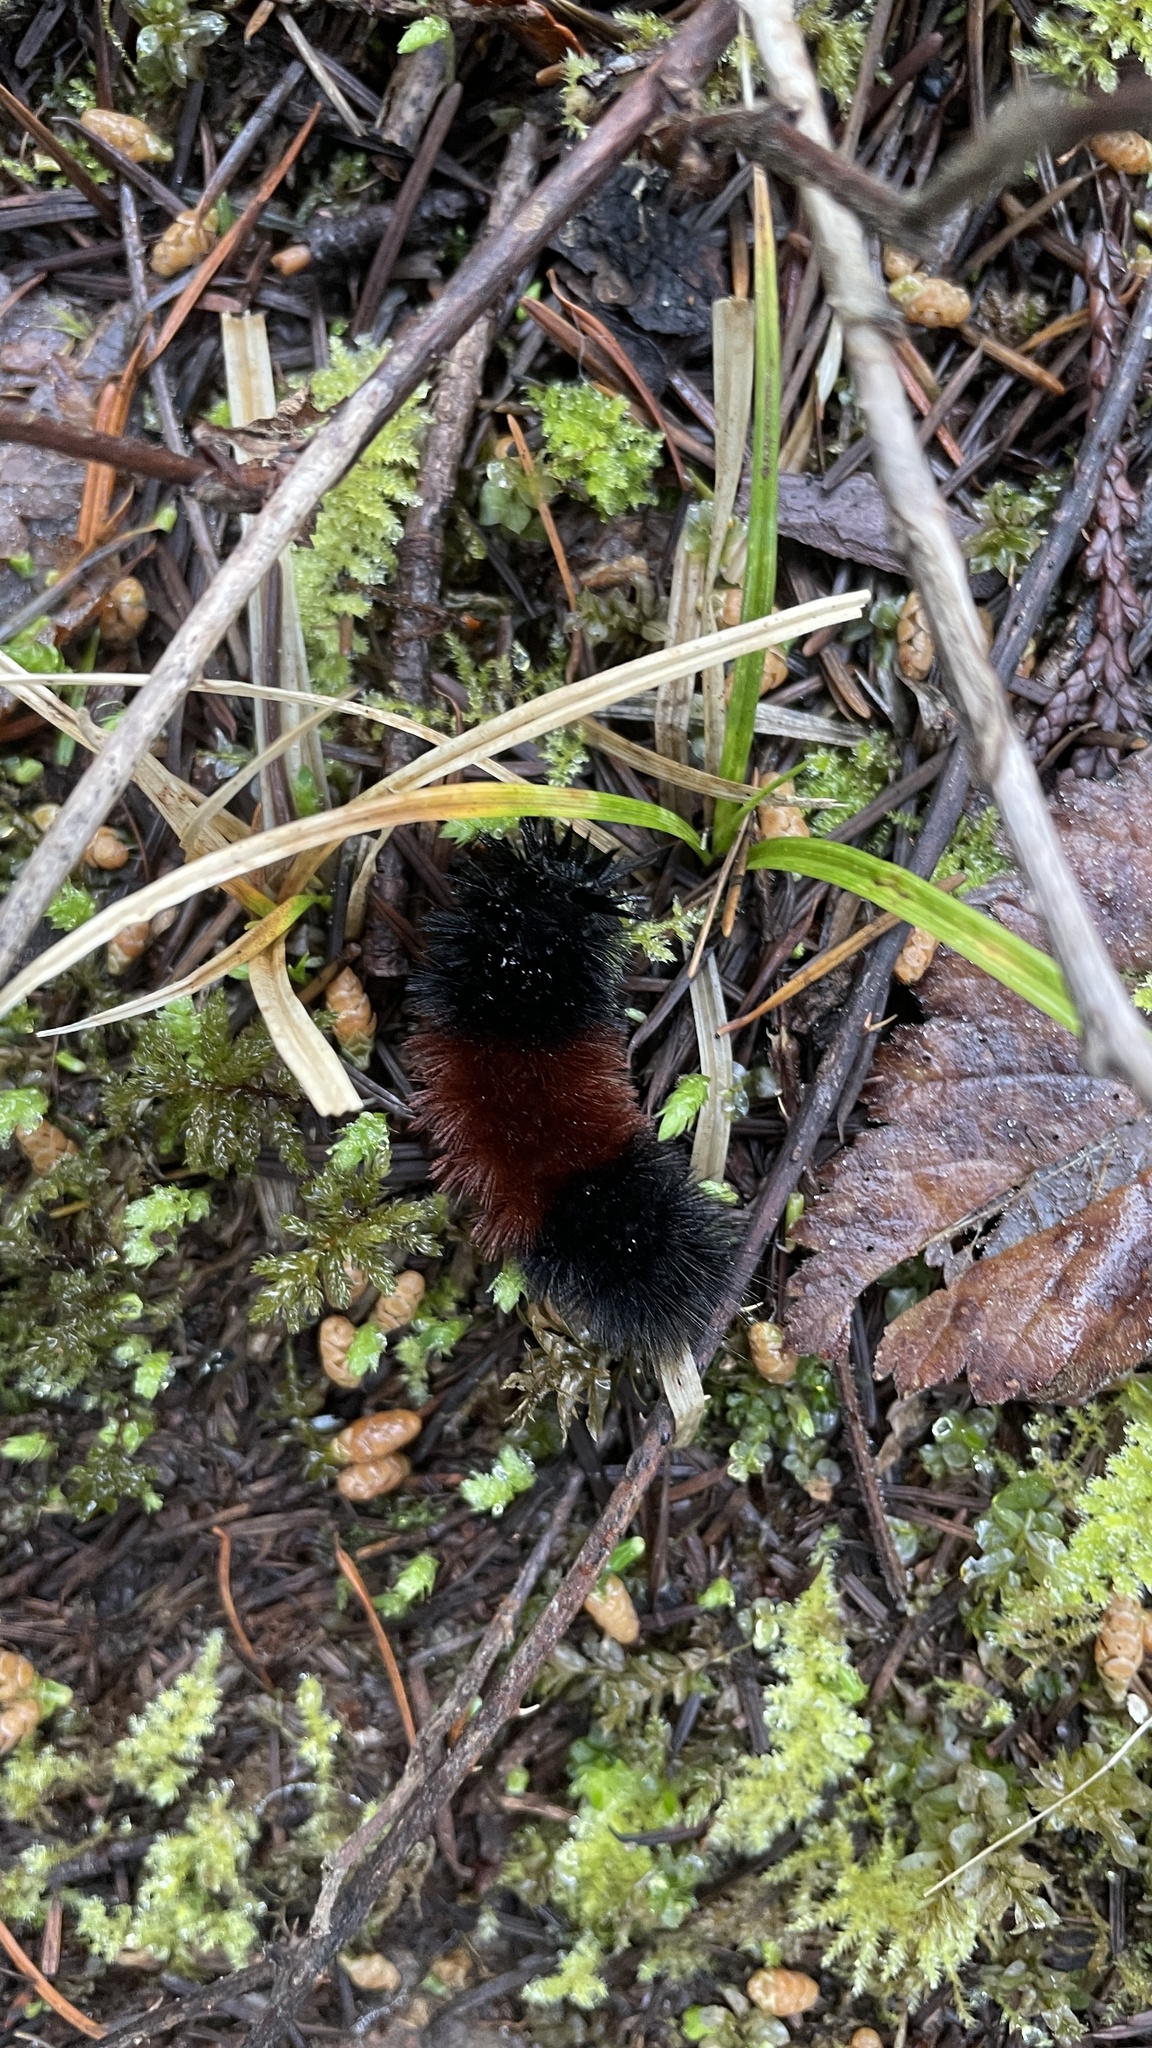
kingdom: Animalia
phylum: Arthropoda
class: Insecta
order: Lepidoptera
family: Erebidae
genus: Pyrrharctia
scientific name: Pyrrharctia isabella
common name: Isabella tiger moth
